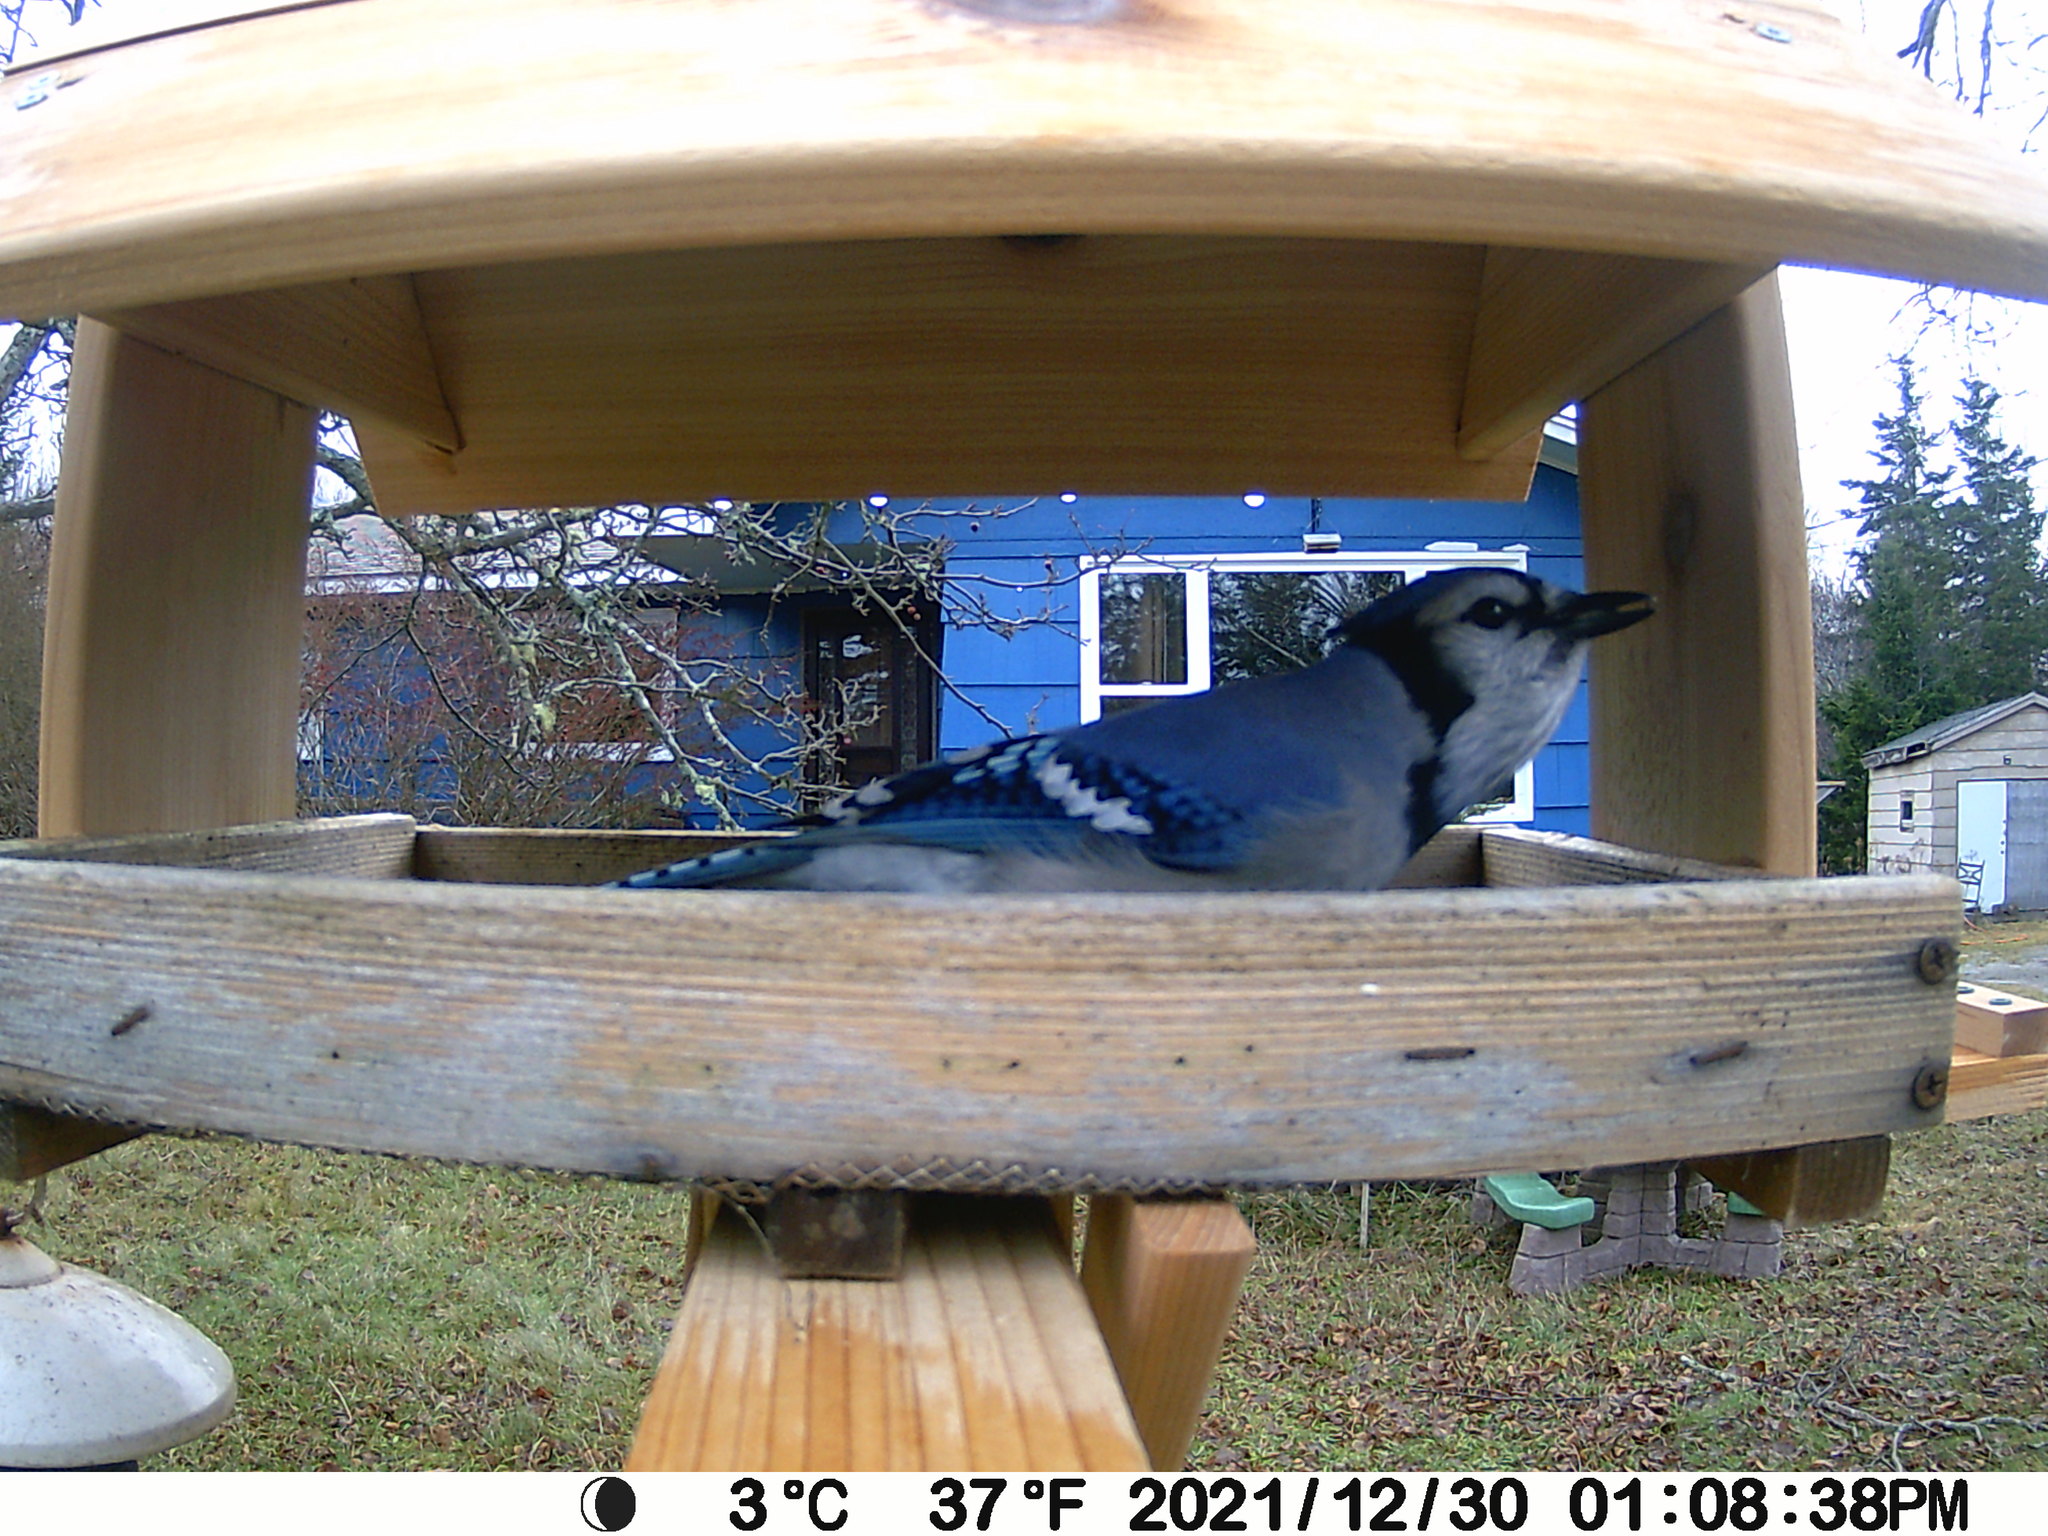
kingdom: Animalia
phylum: Chordata
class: Aves
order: Passeriformes
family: Corvidae
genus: Cyanocitta
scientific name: Cyanocitta cristata
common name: Blue jay
